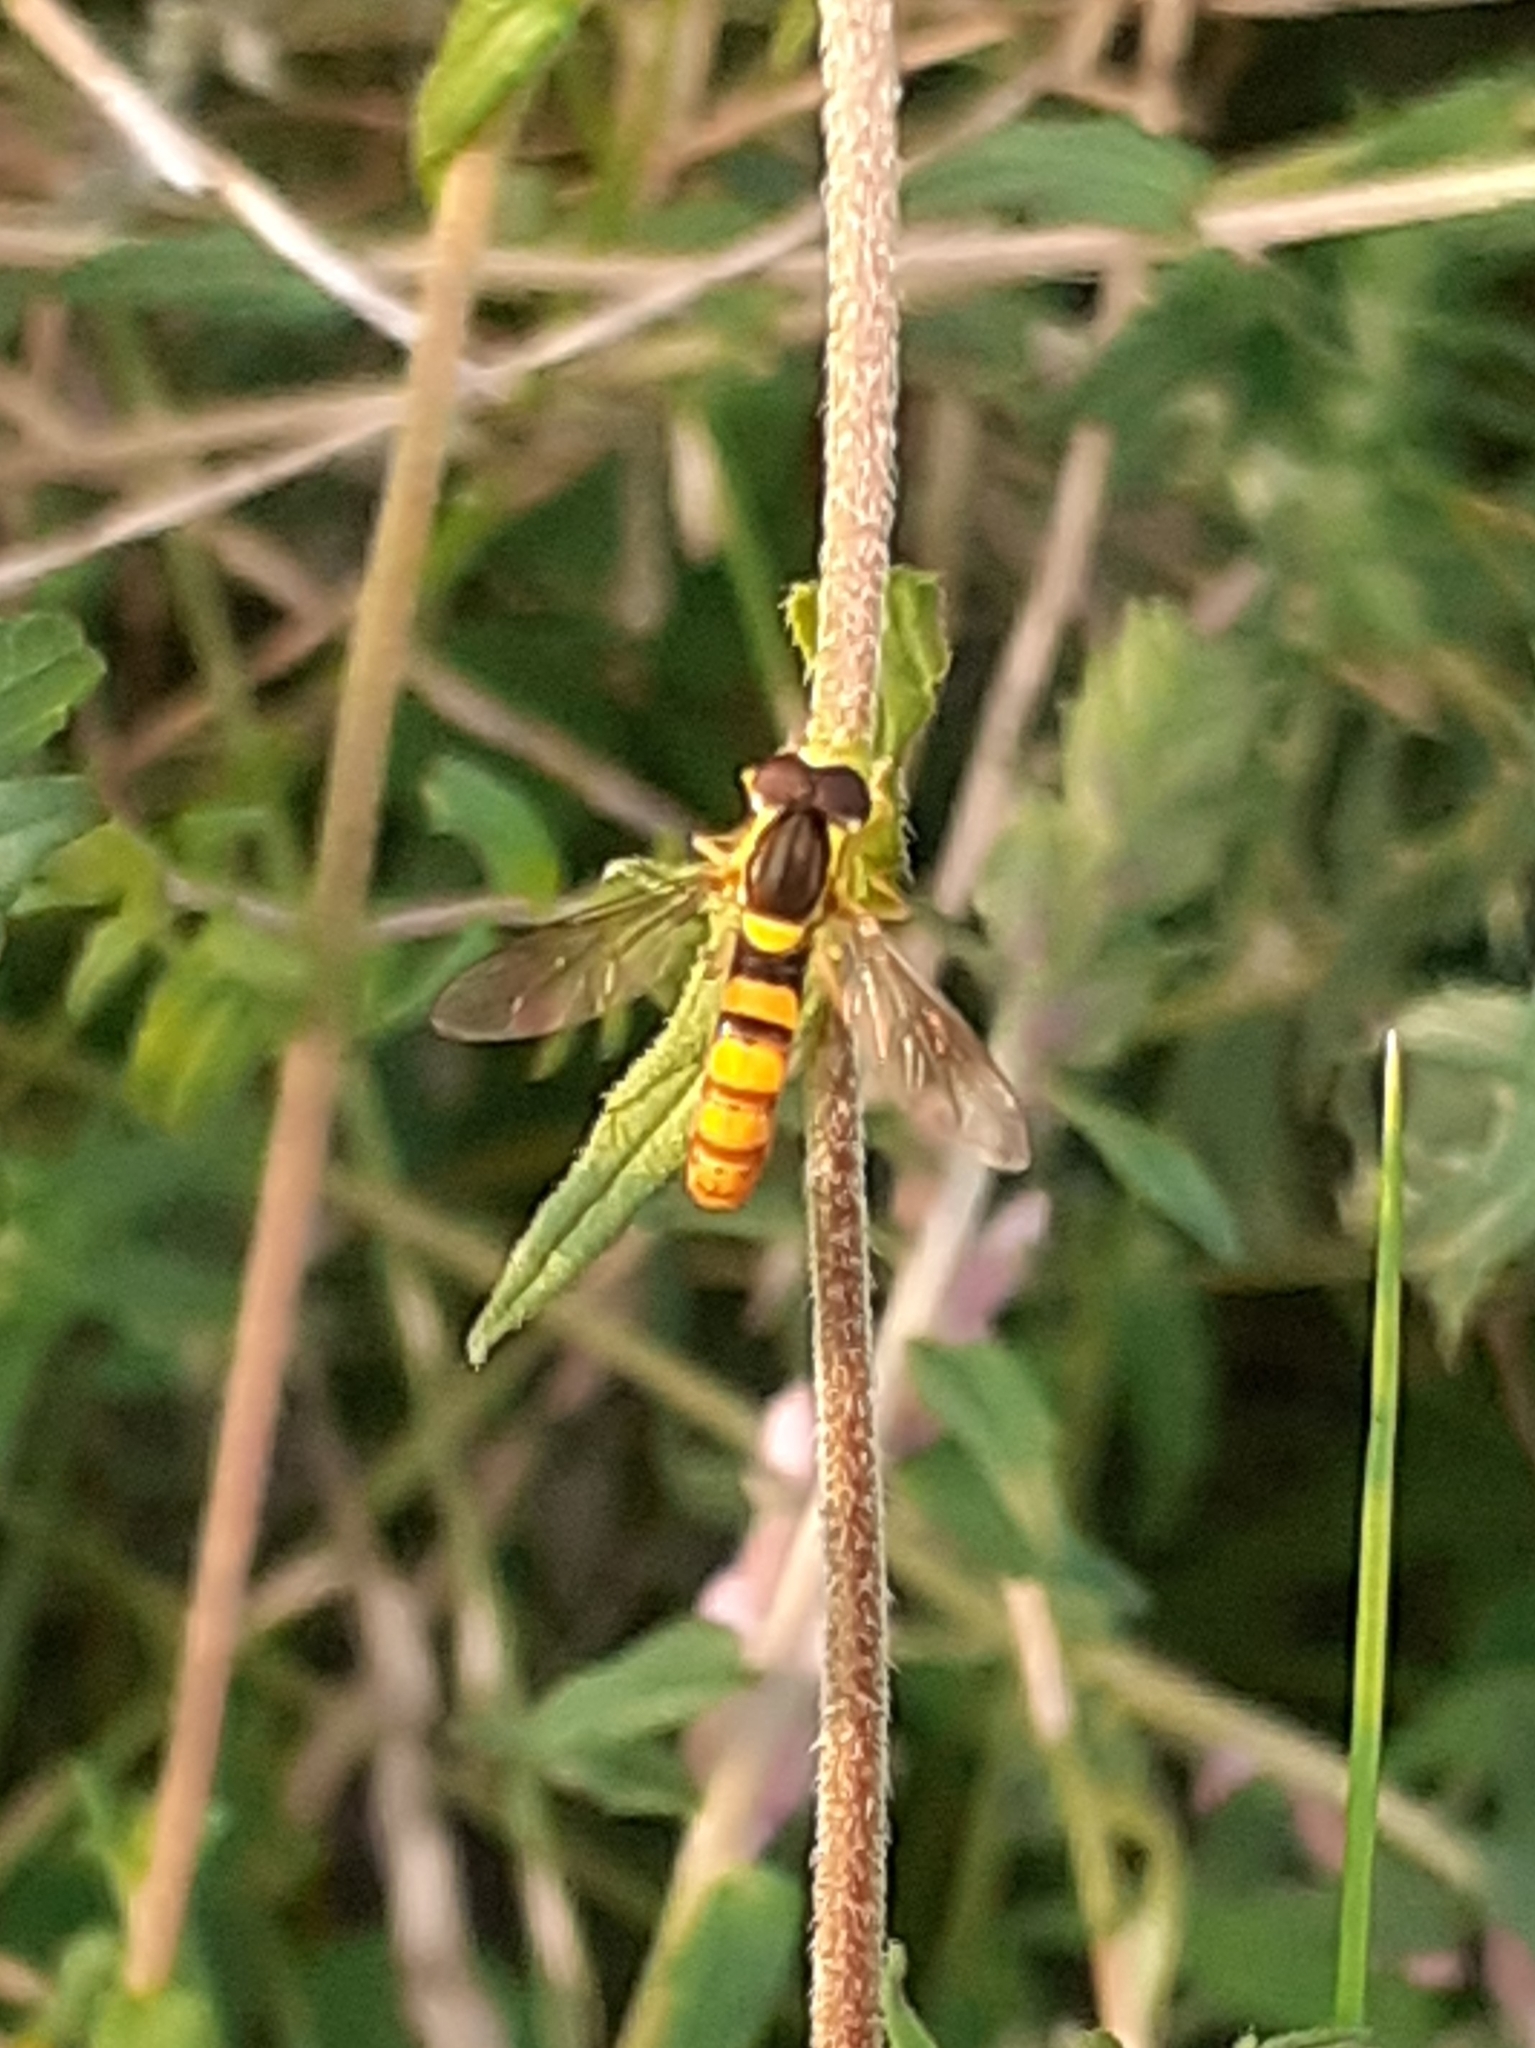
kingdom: Animalia
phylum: Arthropoda
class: Insecta
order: Diptera
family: Syrphidae
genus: Sphaerophoria
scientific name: Sphaerophoria
